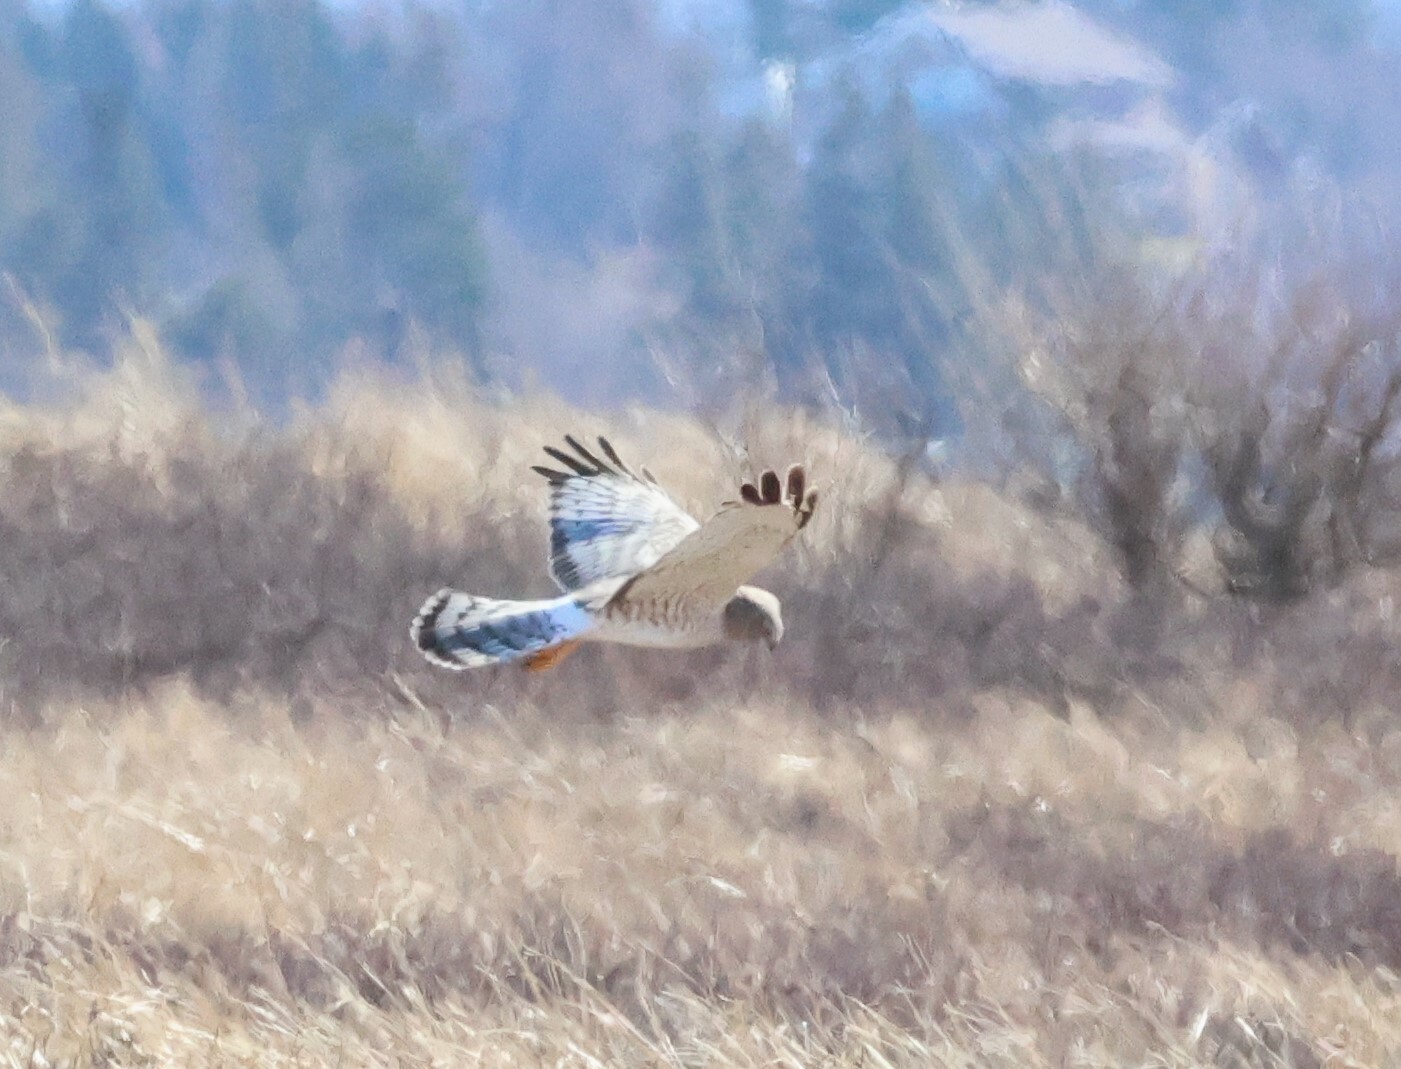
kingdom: Animalia
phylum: Chordata
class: Aves
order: Accipitriformes
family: Accipitridae
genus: Circus
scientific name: Circus cyaneus
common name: Hen harrier
